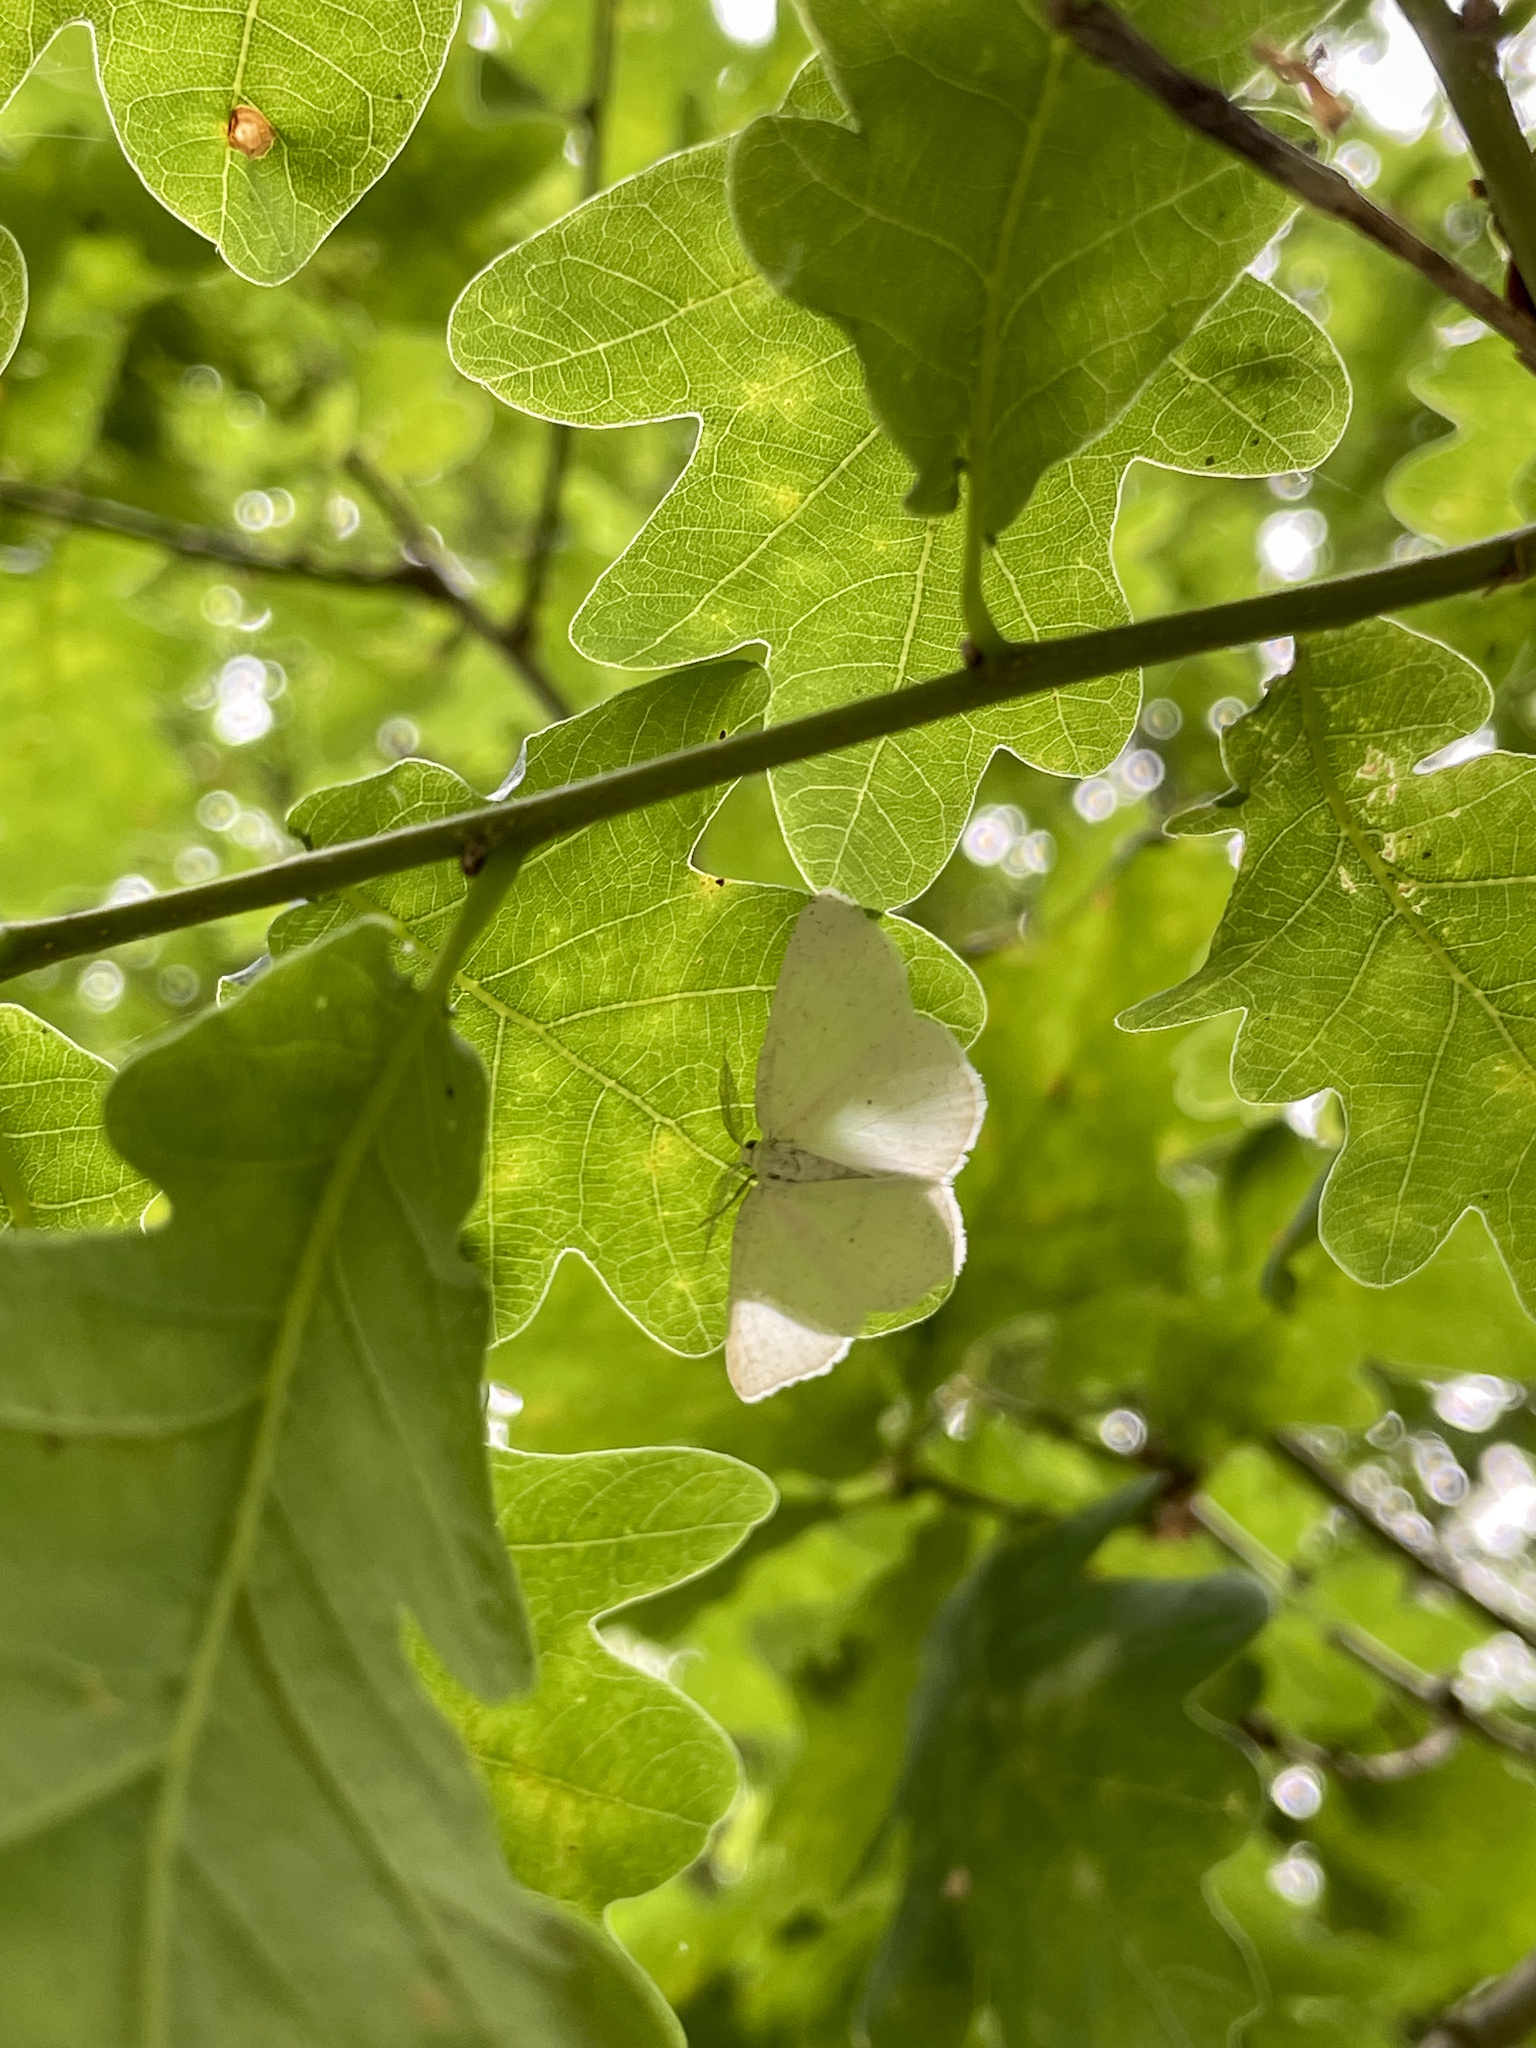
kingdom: Animalia
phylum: Arthropoda
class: Insecta
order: Lepidoptera
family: Geometridae
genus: Cabera
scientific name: Cabera pusaria
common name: Common white wave
